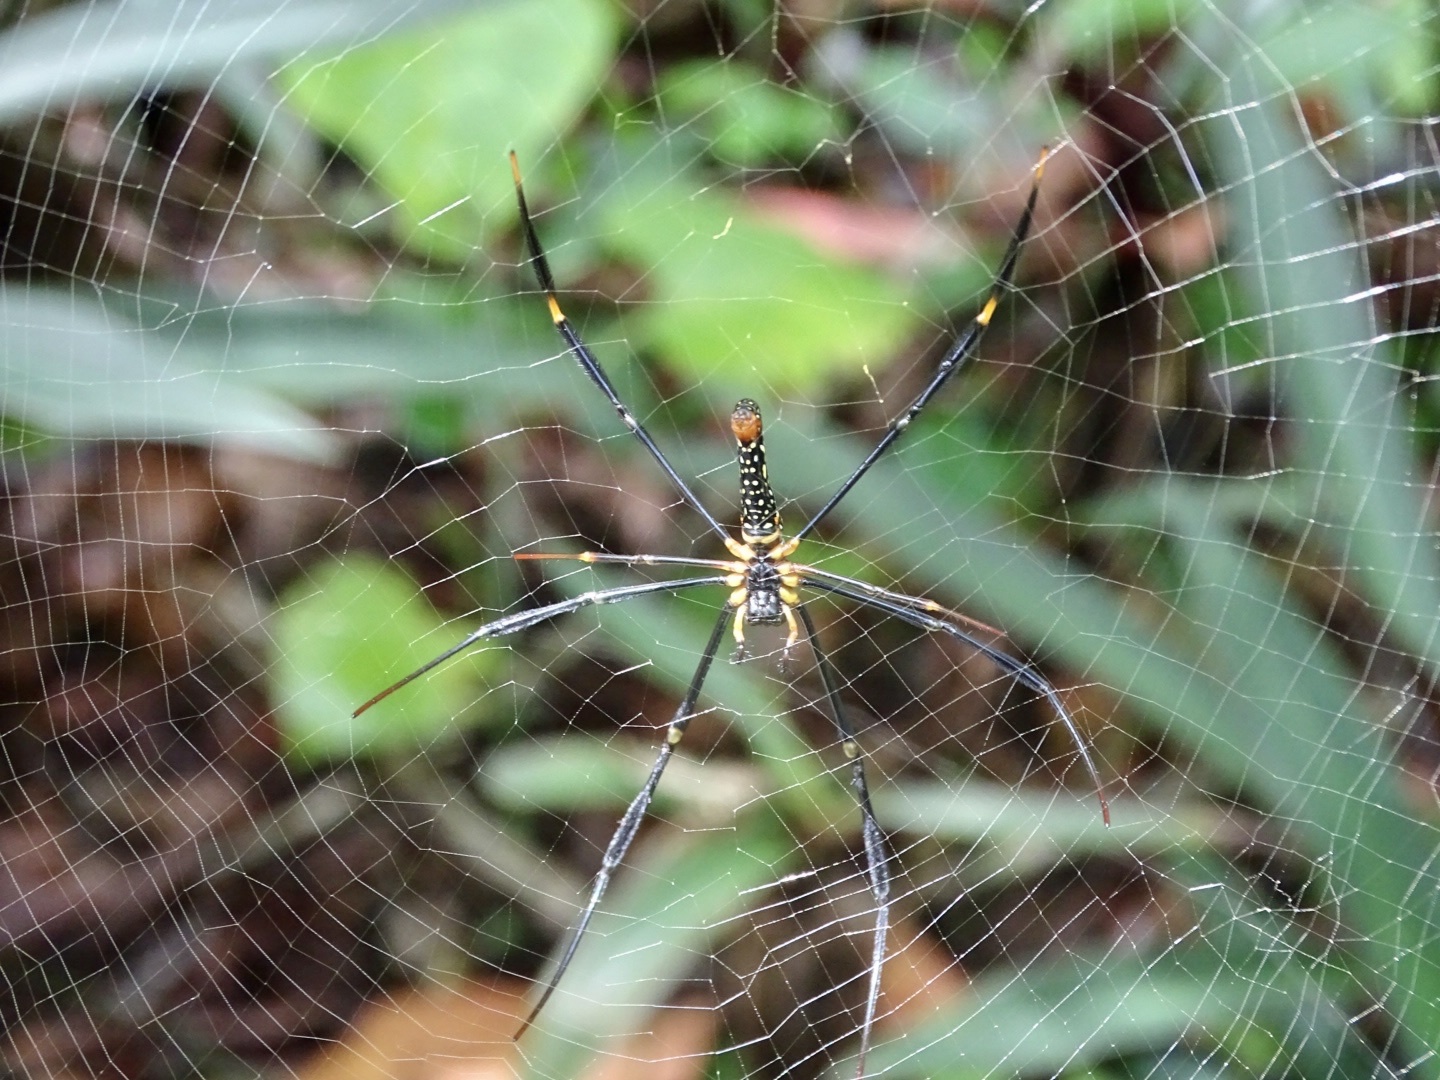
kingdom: Animalia
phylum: Arthropoda
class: Arachnida
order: Araneae
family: Araneidae
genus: Nephila
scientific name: Nephila pilipes
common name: Giant golden orb weaver
